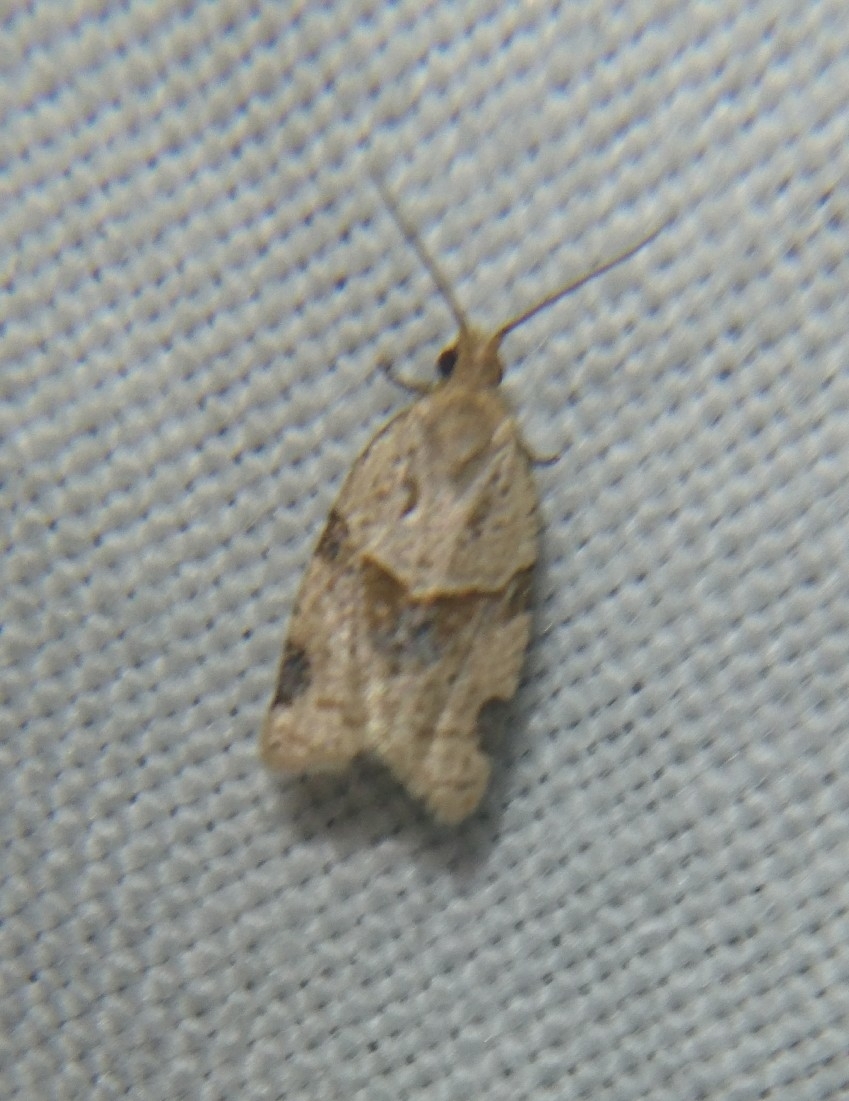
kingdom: Animalia
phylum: Arthropoda
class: Insecta
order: Lepidoptera
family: Tortricidae
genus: Clepsis
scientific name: Clepsis peritana
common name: Garden tortrix
